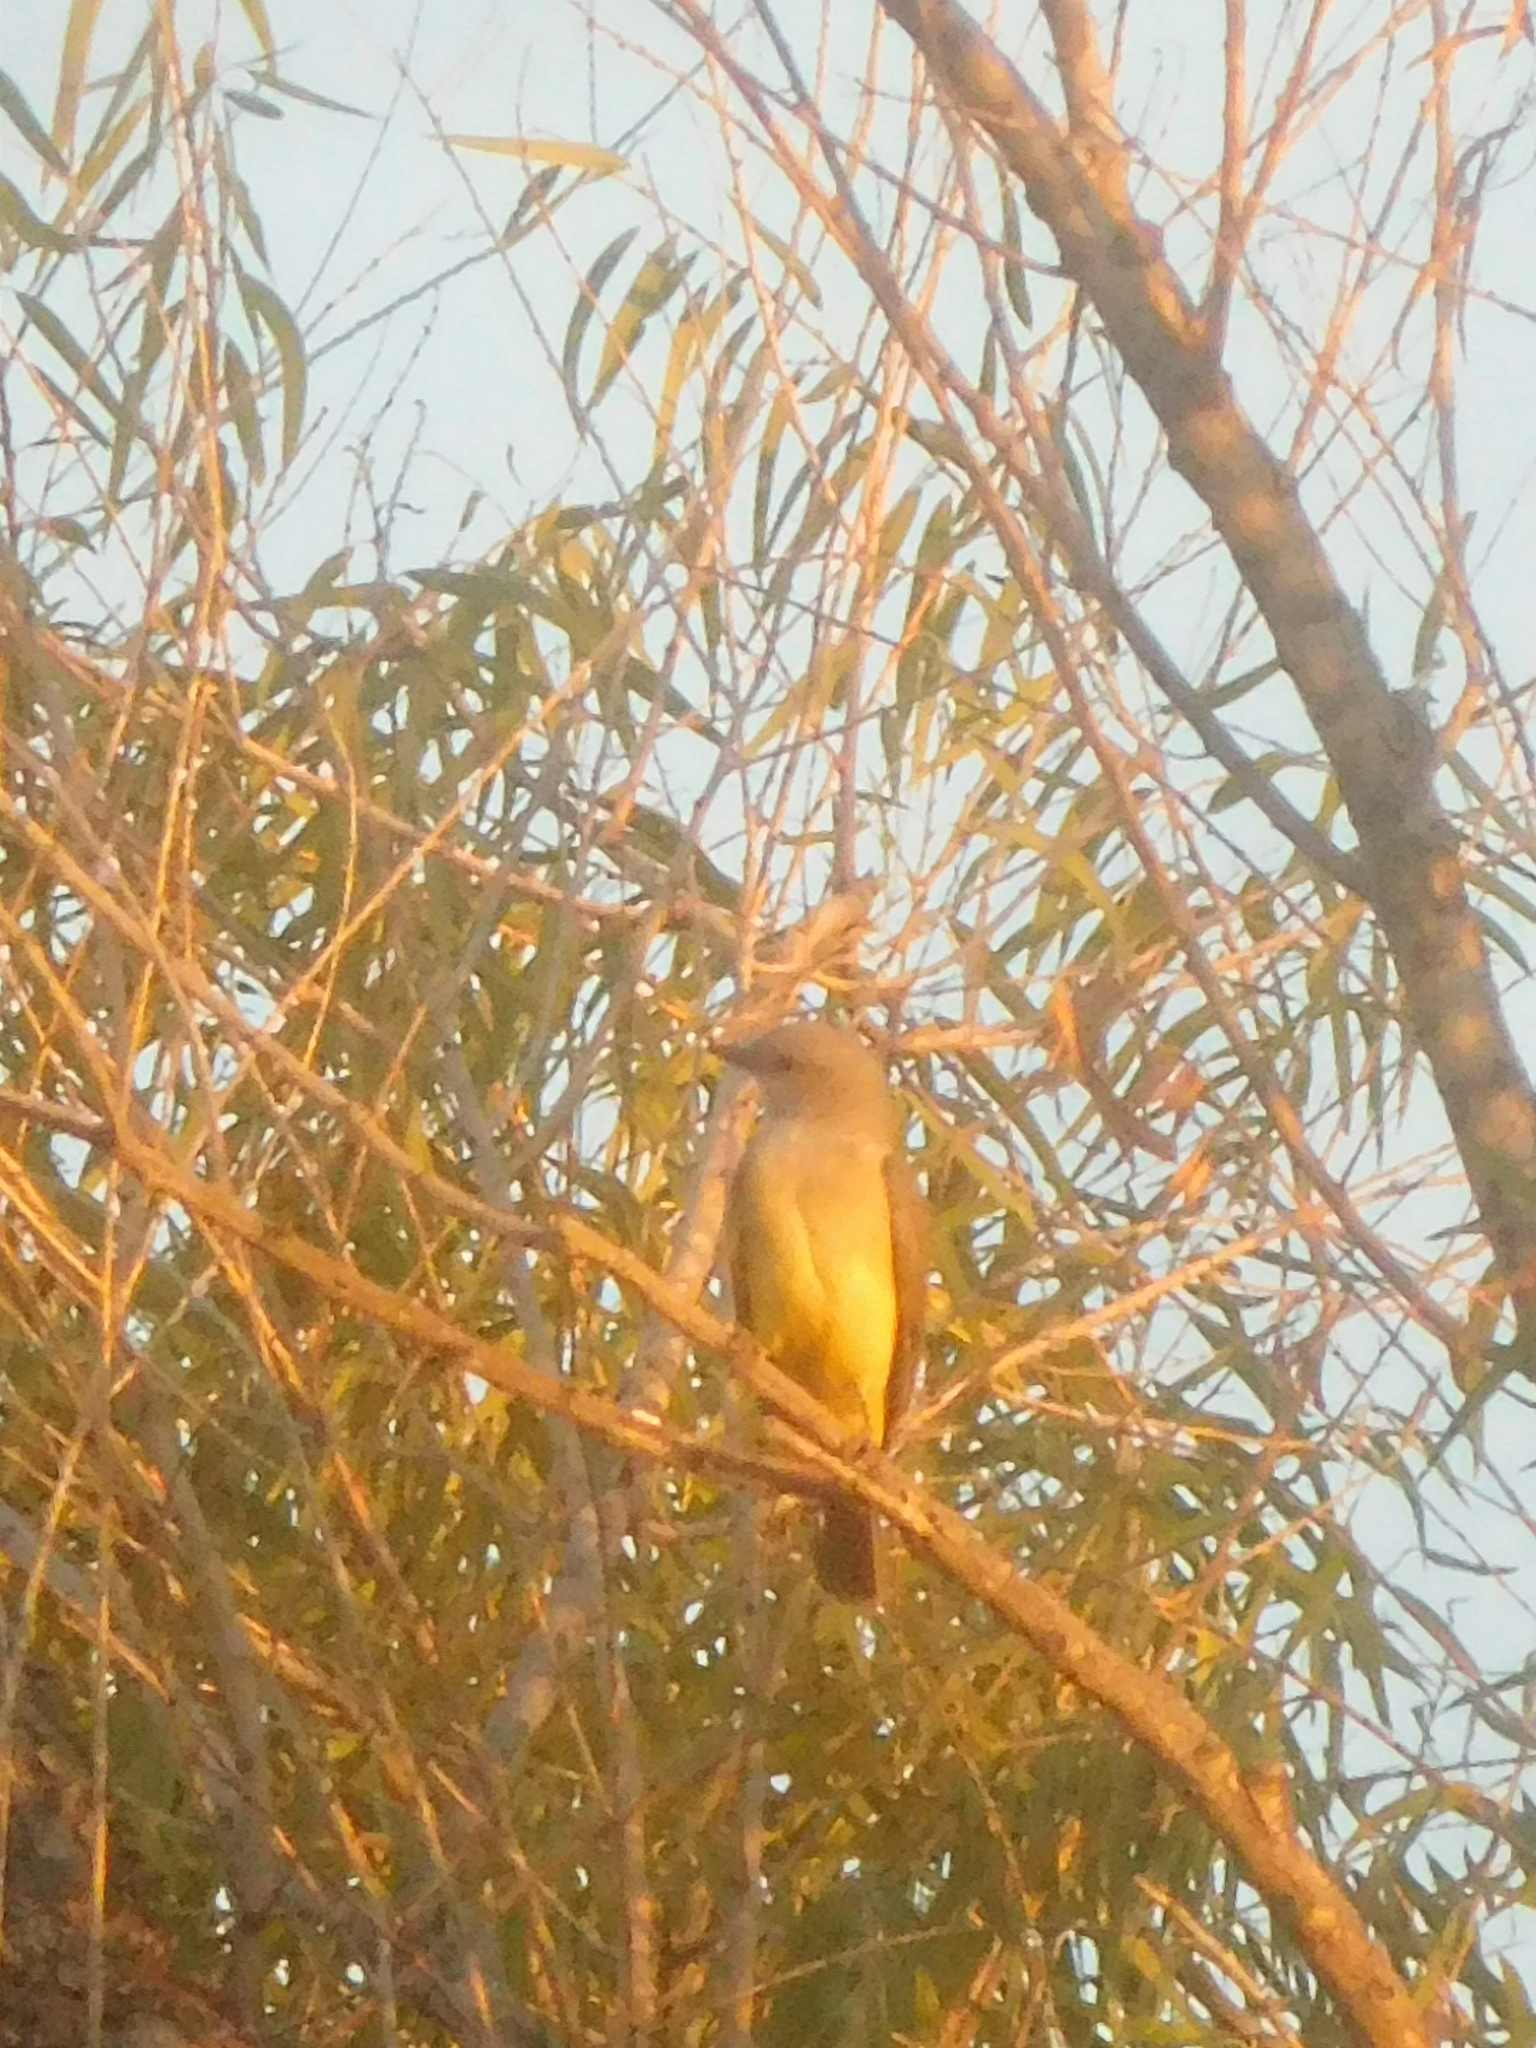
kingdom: Animalia
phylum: Chordata
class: Aves
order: Passeriformes
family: Tyrannidae
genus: Tyrannus
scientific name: Tyrannus verticalis
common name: Western kingbird
